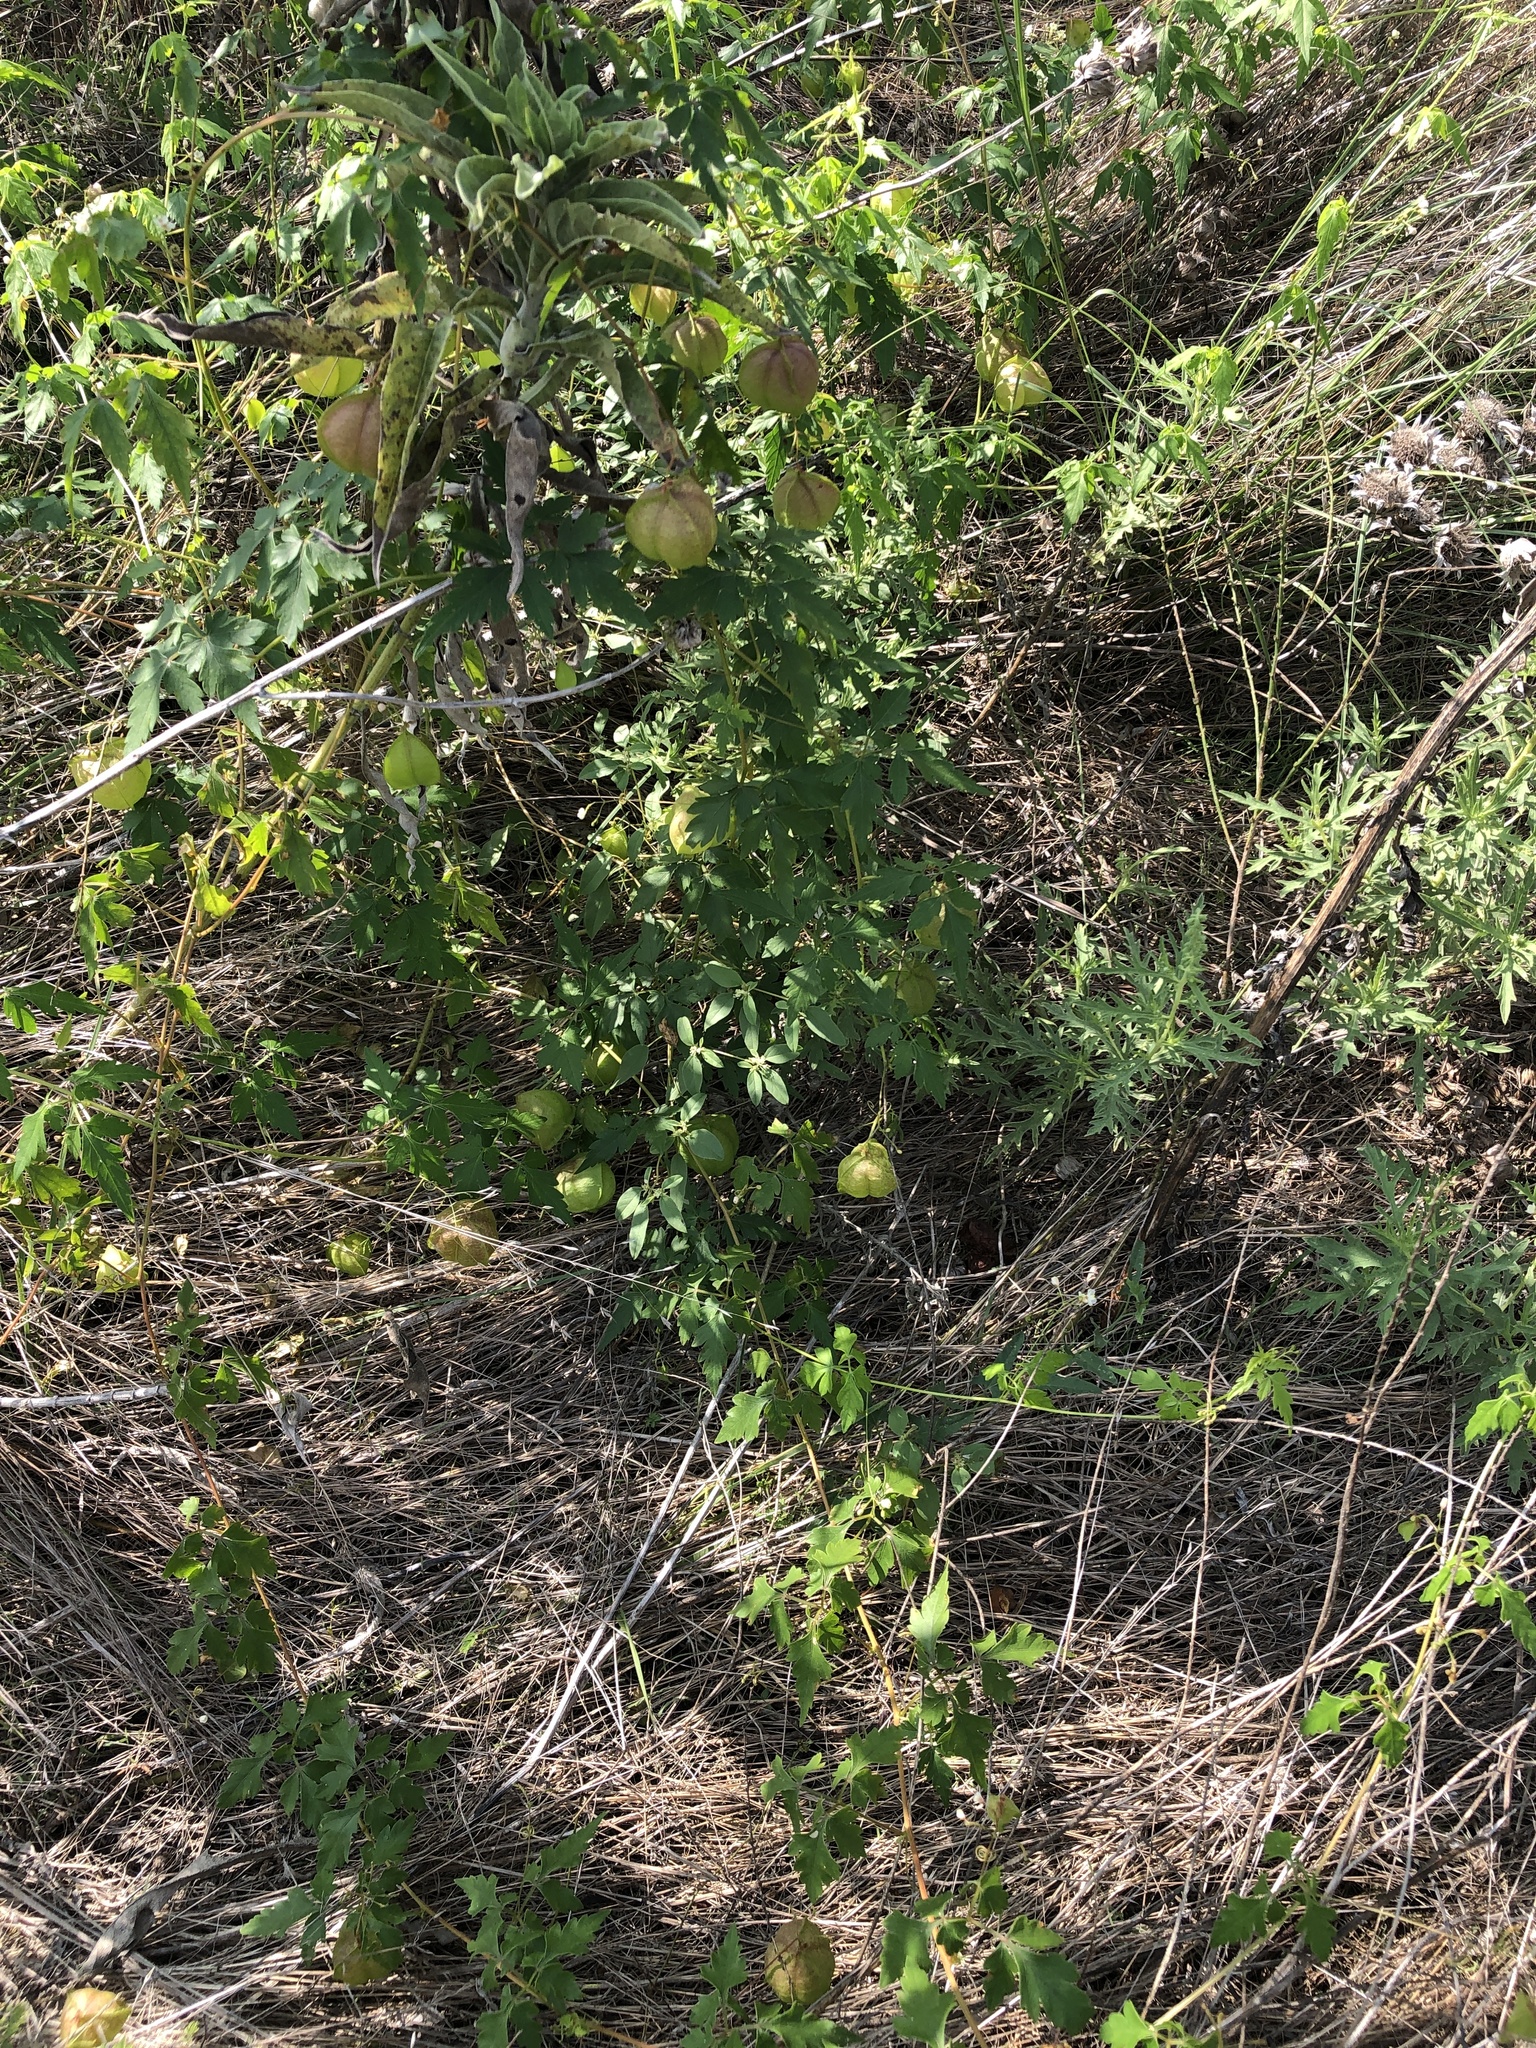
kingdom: Plantae
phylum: Tracheophyta
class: Magnoliopsida
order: Sapindales
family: Sapindaceae
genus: Cardiospermum
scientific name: Cardiospermum halicacabum
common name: Balloon vine
